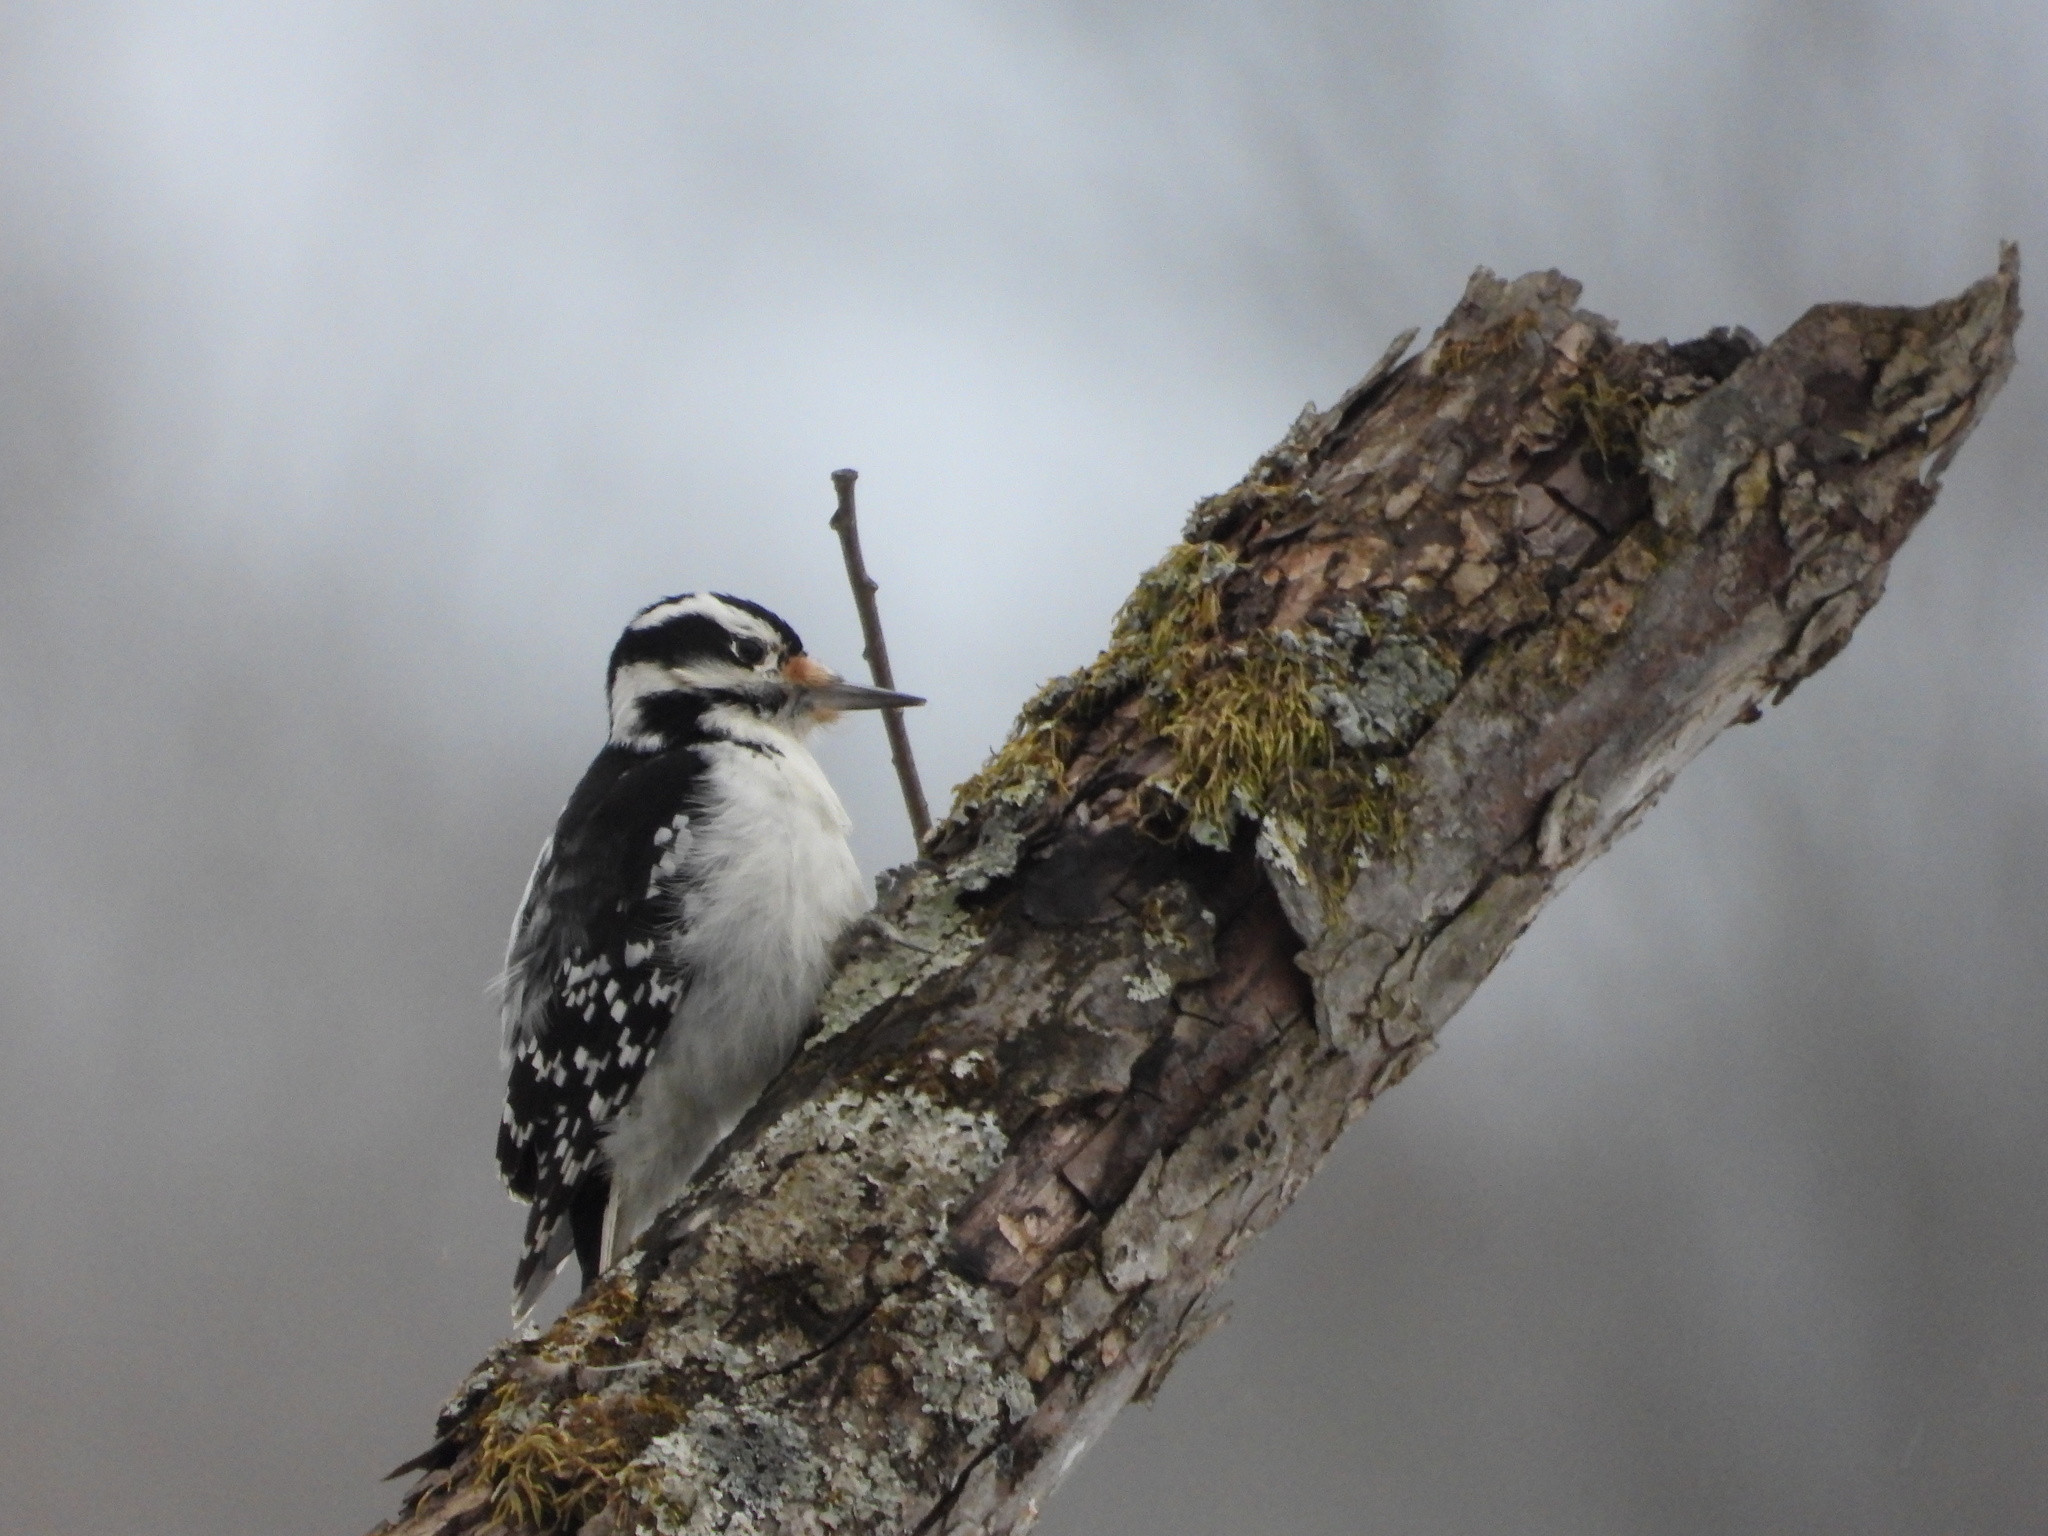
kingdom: Animalia
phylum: Chordata
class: Aves
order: Piciformes
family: Picidae
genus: Leuconotopicus
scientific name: Leuconotopicus villosus
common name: Hairy woodpecker
